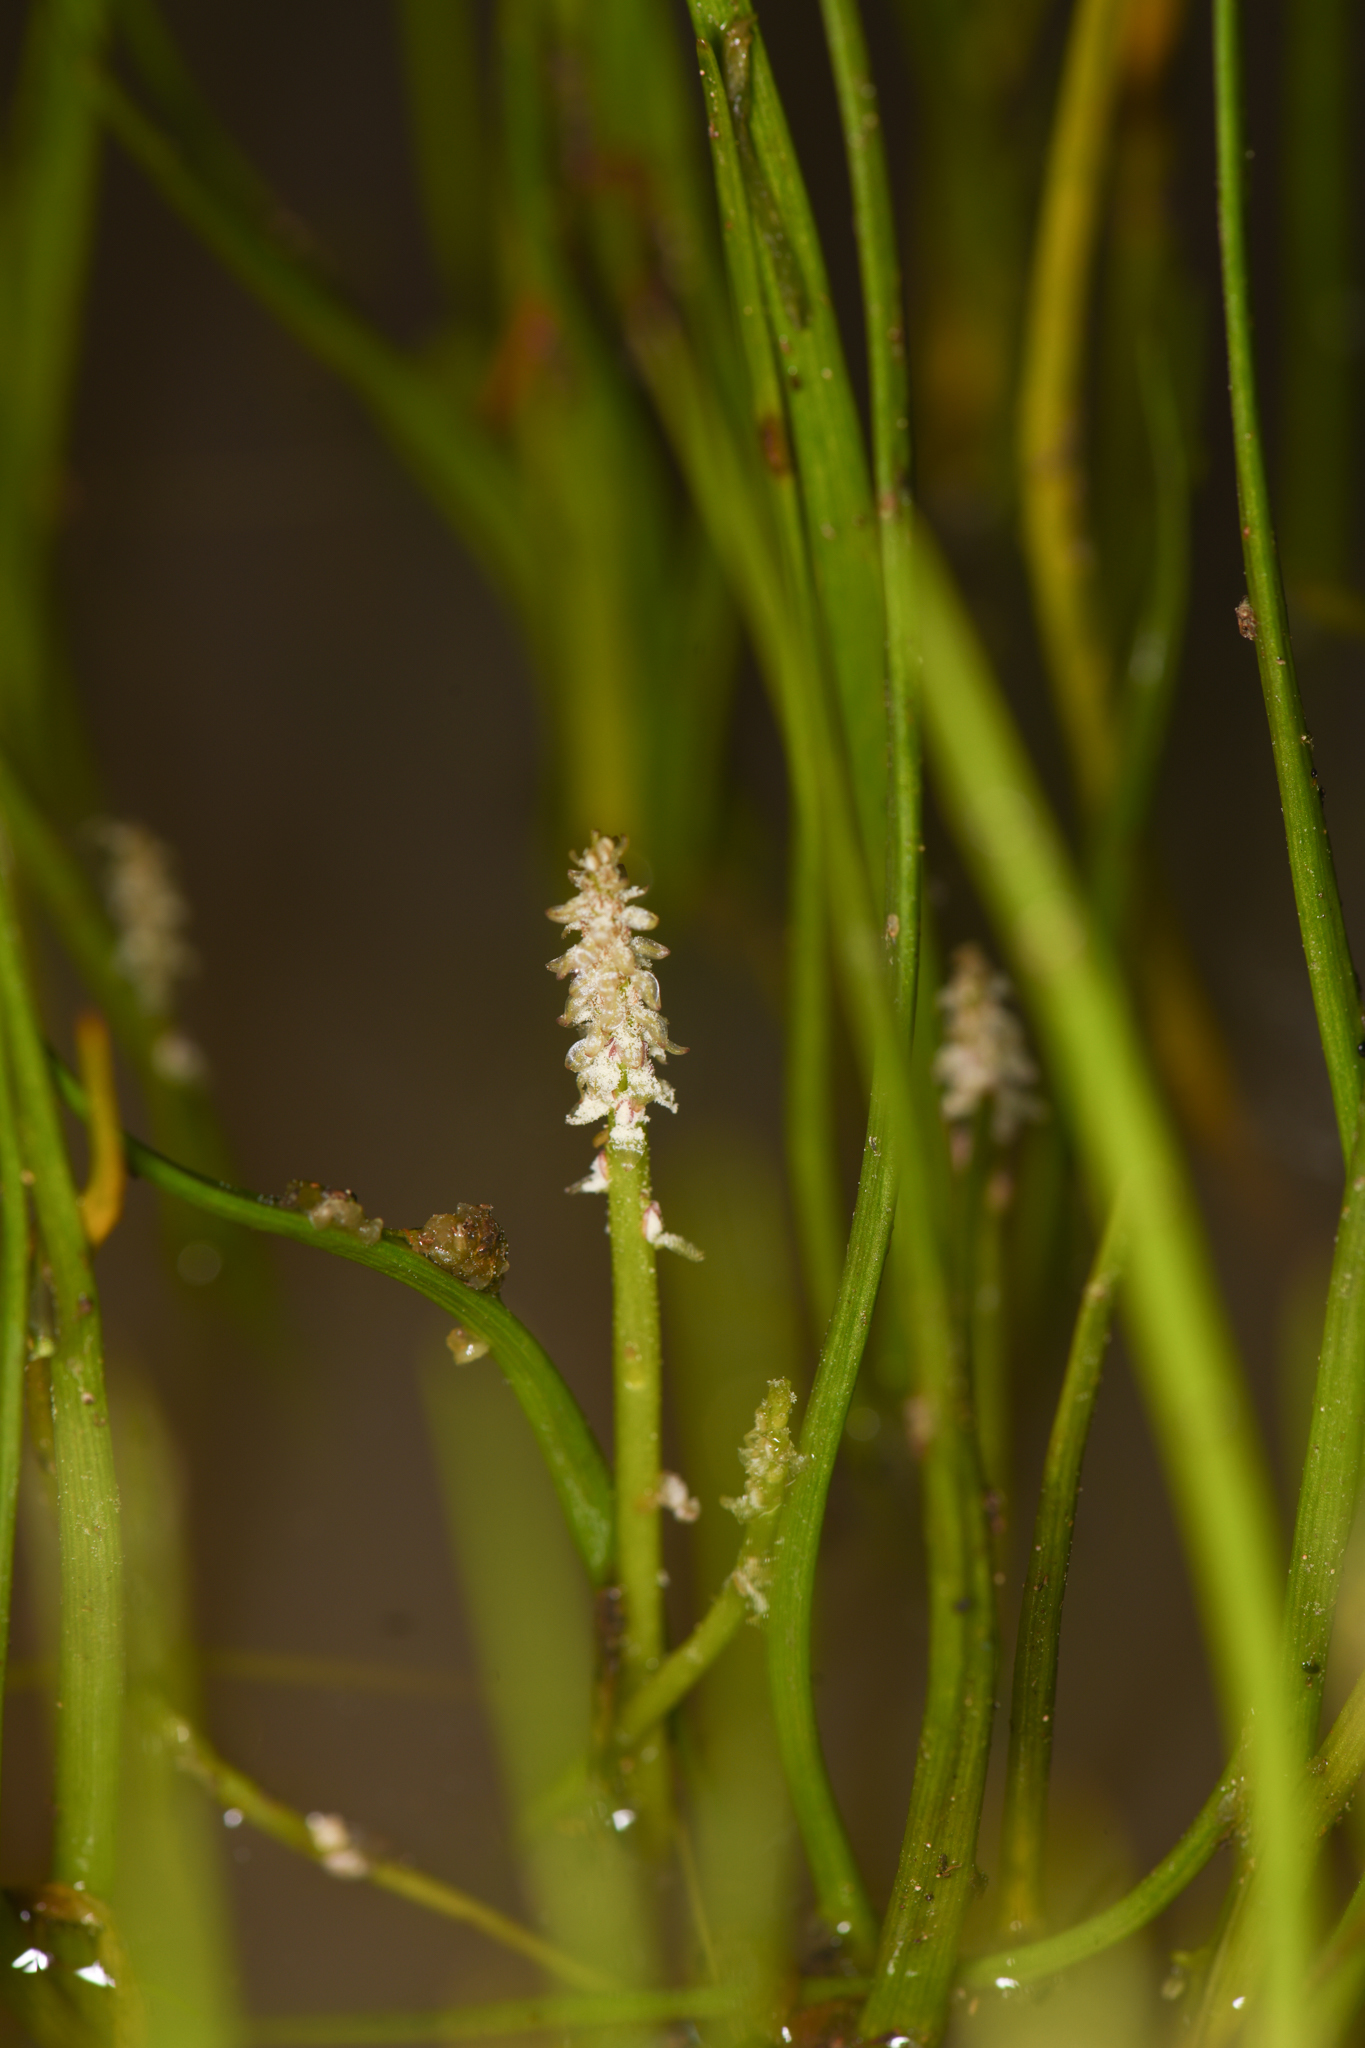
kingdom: Plantae
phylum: Tracheophyta
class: Liliopsida
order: Alismatales
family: Juncaginaceae
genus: Triglochin
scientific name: Triglochin scilloides
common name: Awl-leaved lilaea
